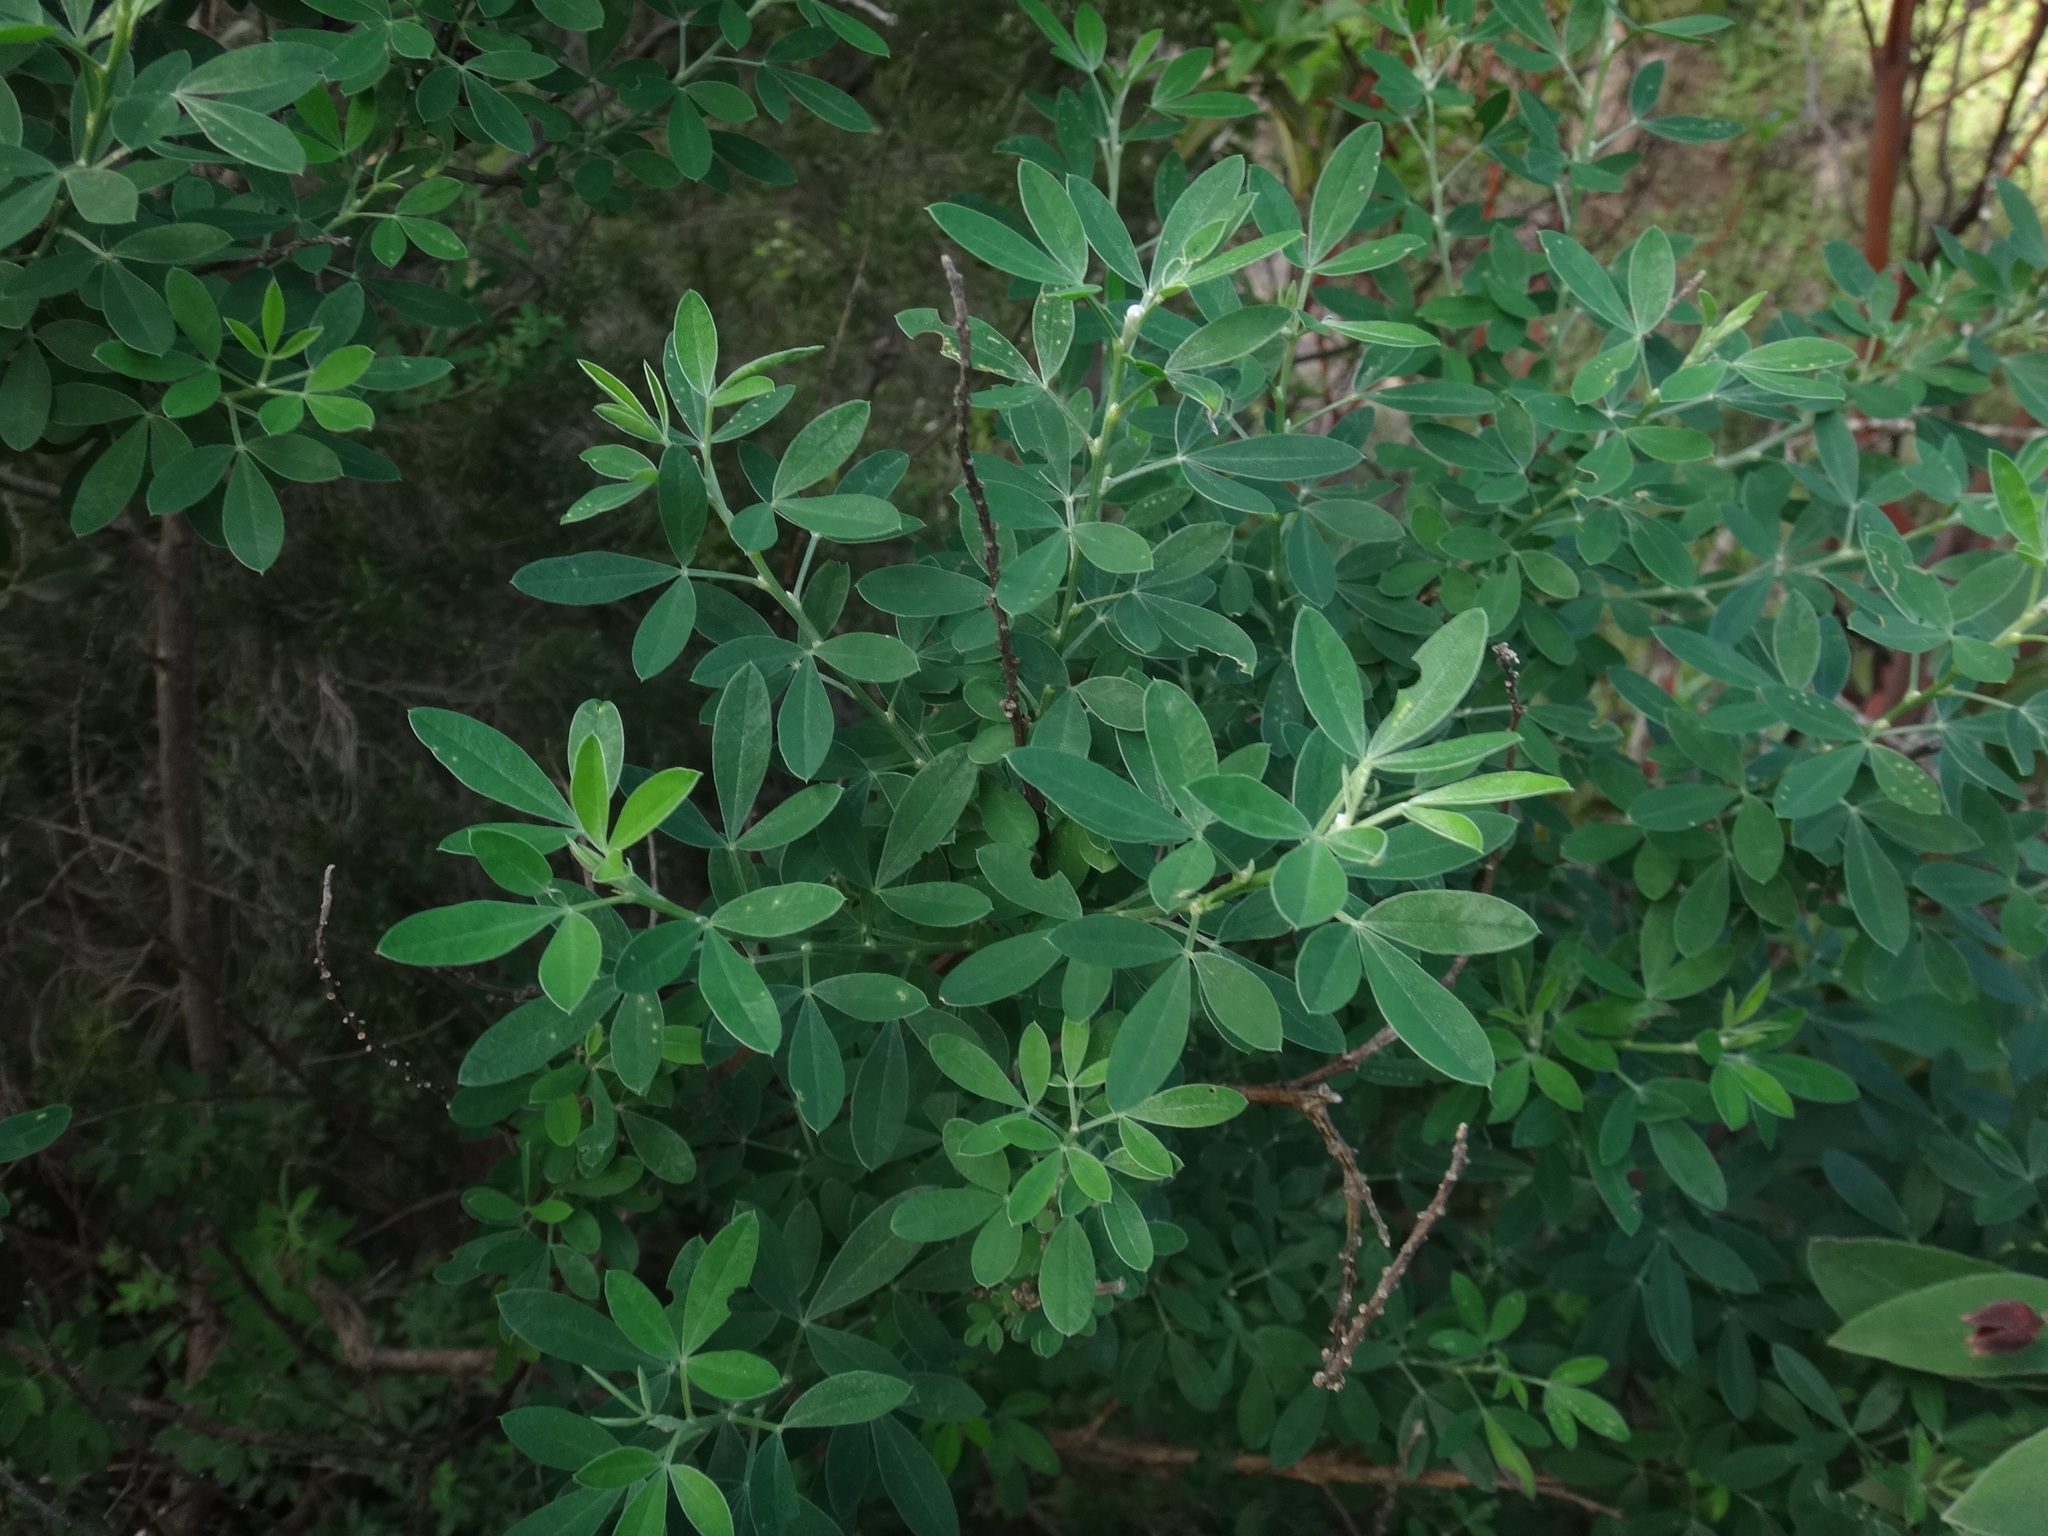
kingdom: Plantae
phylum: Tracheophyta
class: Magnoliopsida
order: Fabales
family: Fabaceae
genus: Genista
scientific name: Genista stenopetala
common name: Leafy broom
